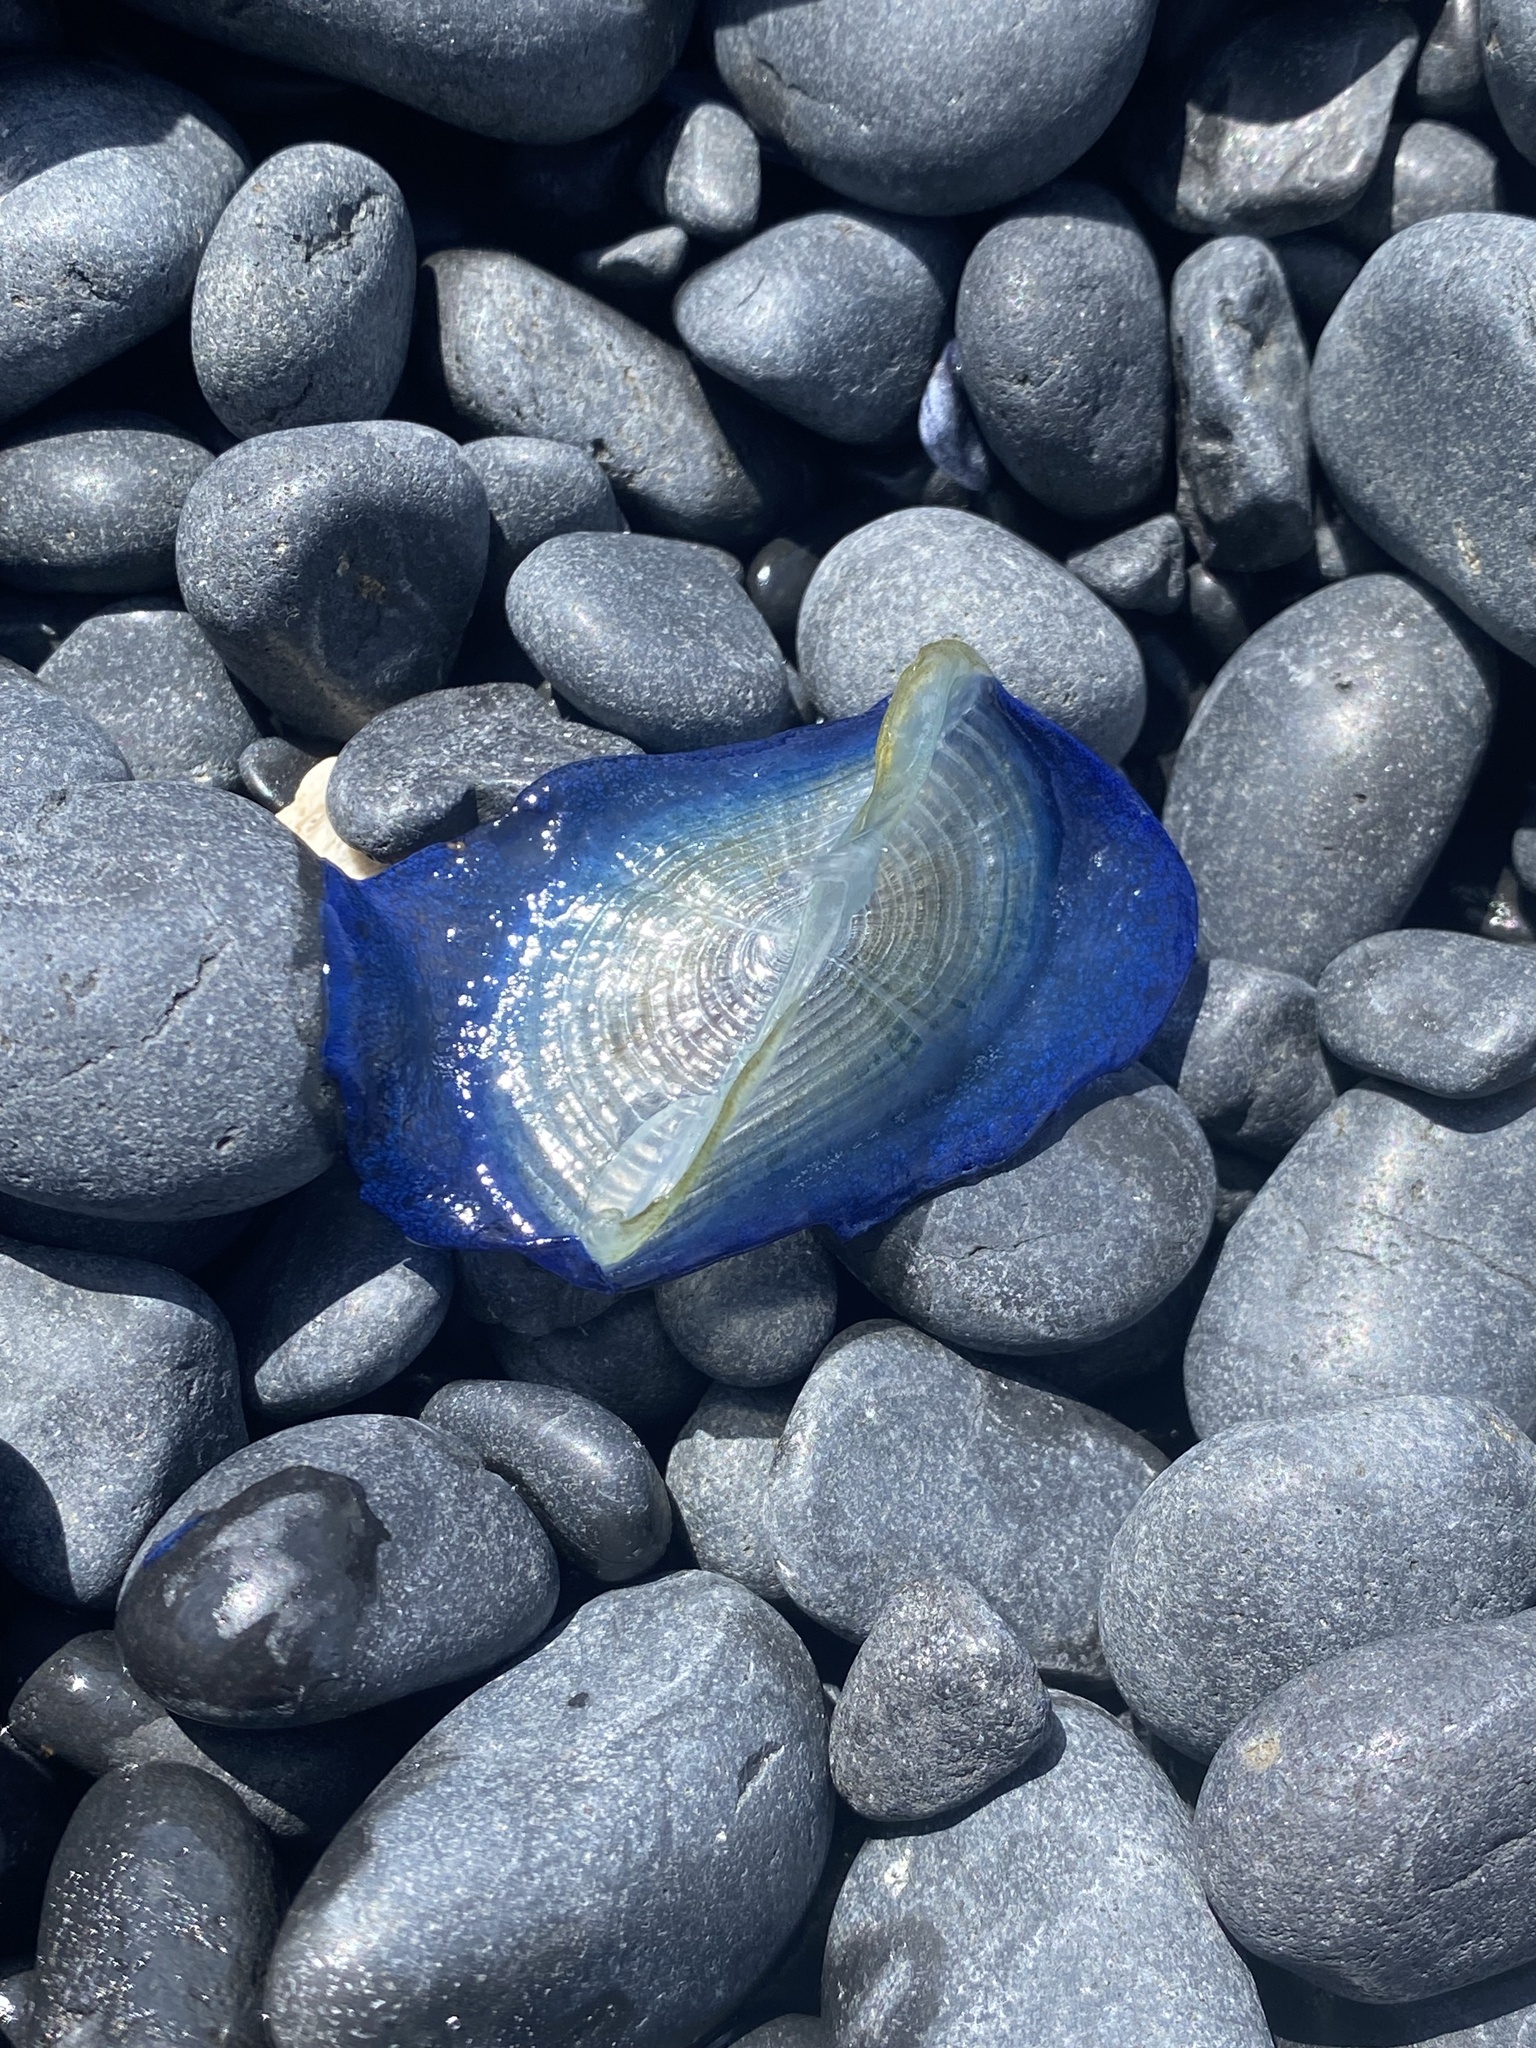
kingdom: Animalia
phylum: Cnidaria
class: Hydrozoa
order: Anthoathecata
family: Porpitidae
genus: Velella
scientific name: Velella velella
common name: By-the-wind-sailor
